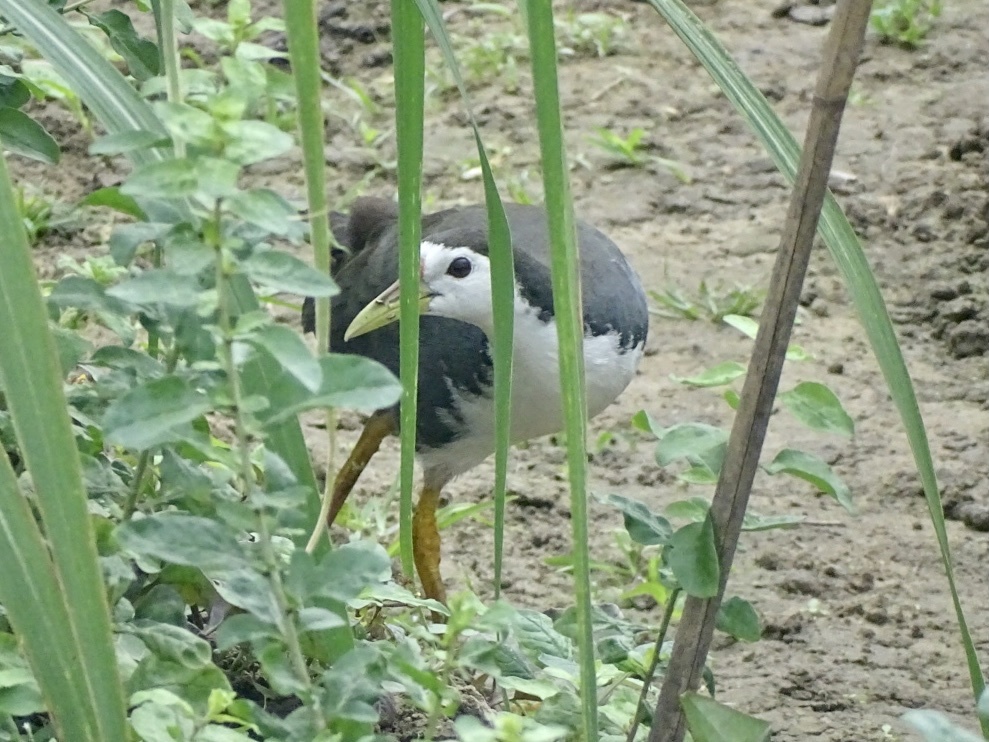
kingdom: Animalia
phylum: Chordata
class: Aves
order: Gruiformes
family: Rallidae
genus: Amaurornis
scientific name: Amaurornis phoenicurus
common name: White-breasted waterhen
